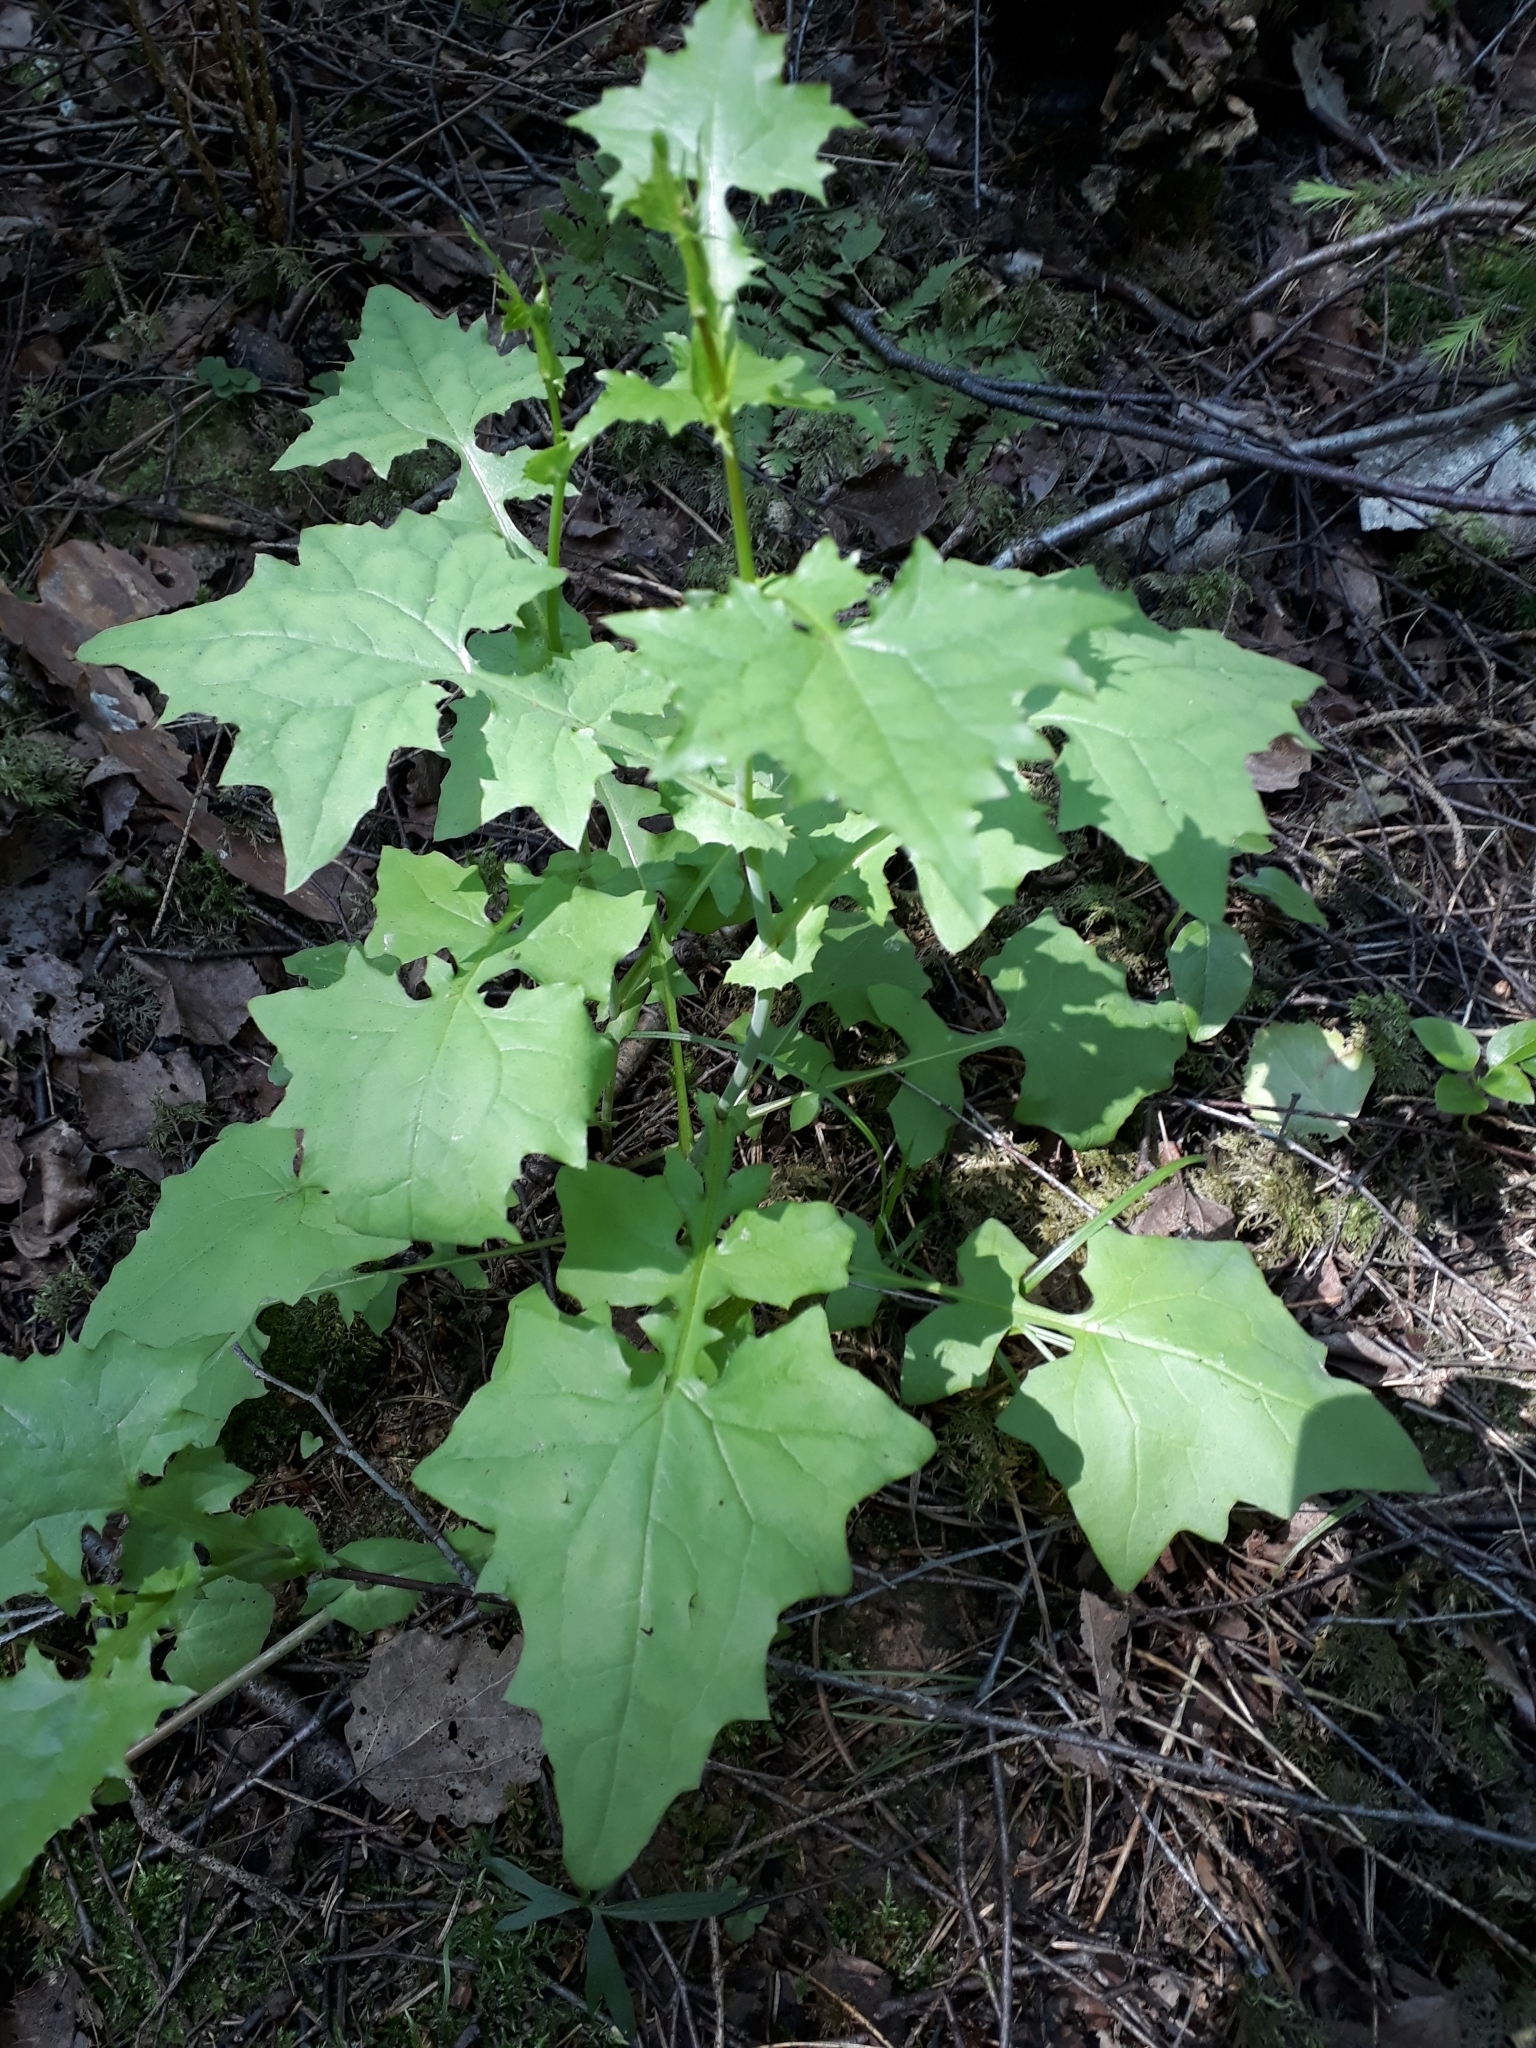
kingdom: Plantae
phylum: Tracheophyta
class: Magnoliopsida
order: Asterales
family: Asteraceae
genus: Mycelis
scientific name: Mycelis muralis
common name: Wall lettuce
